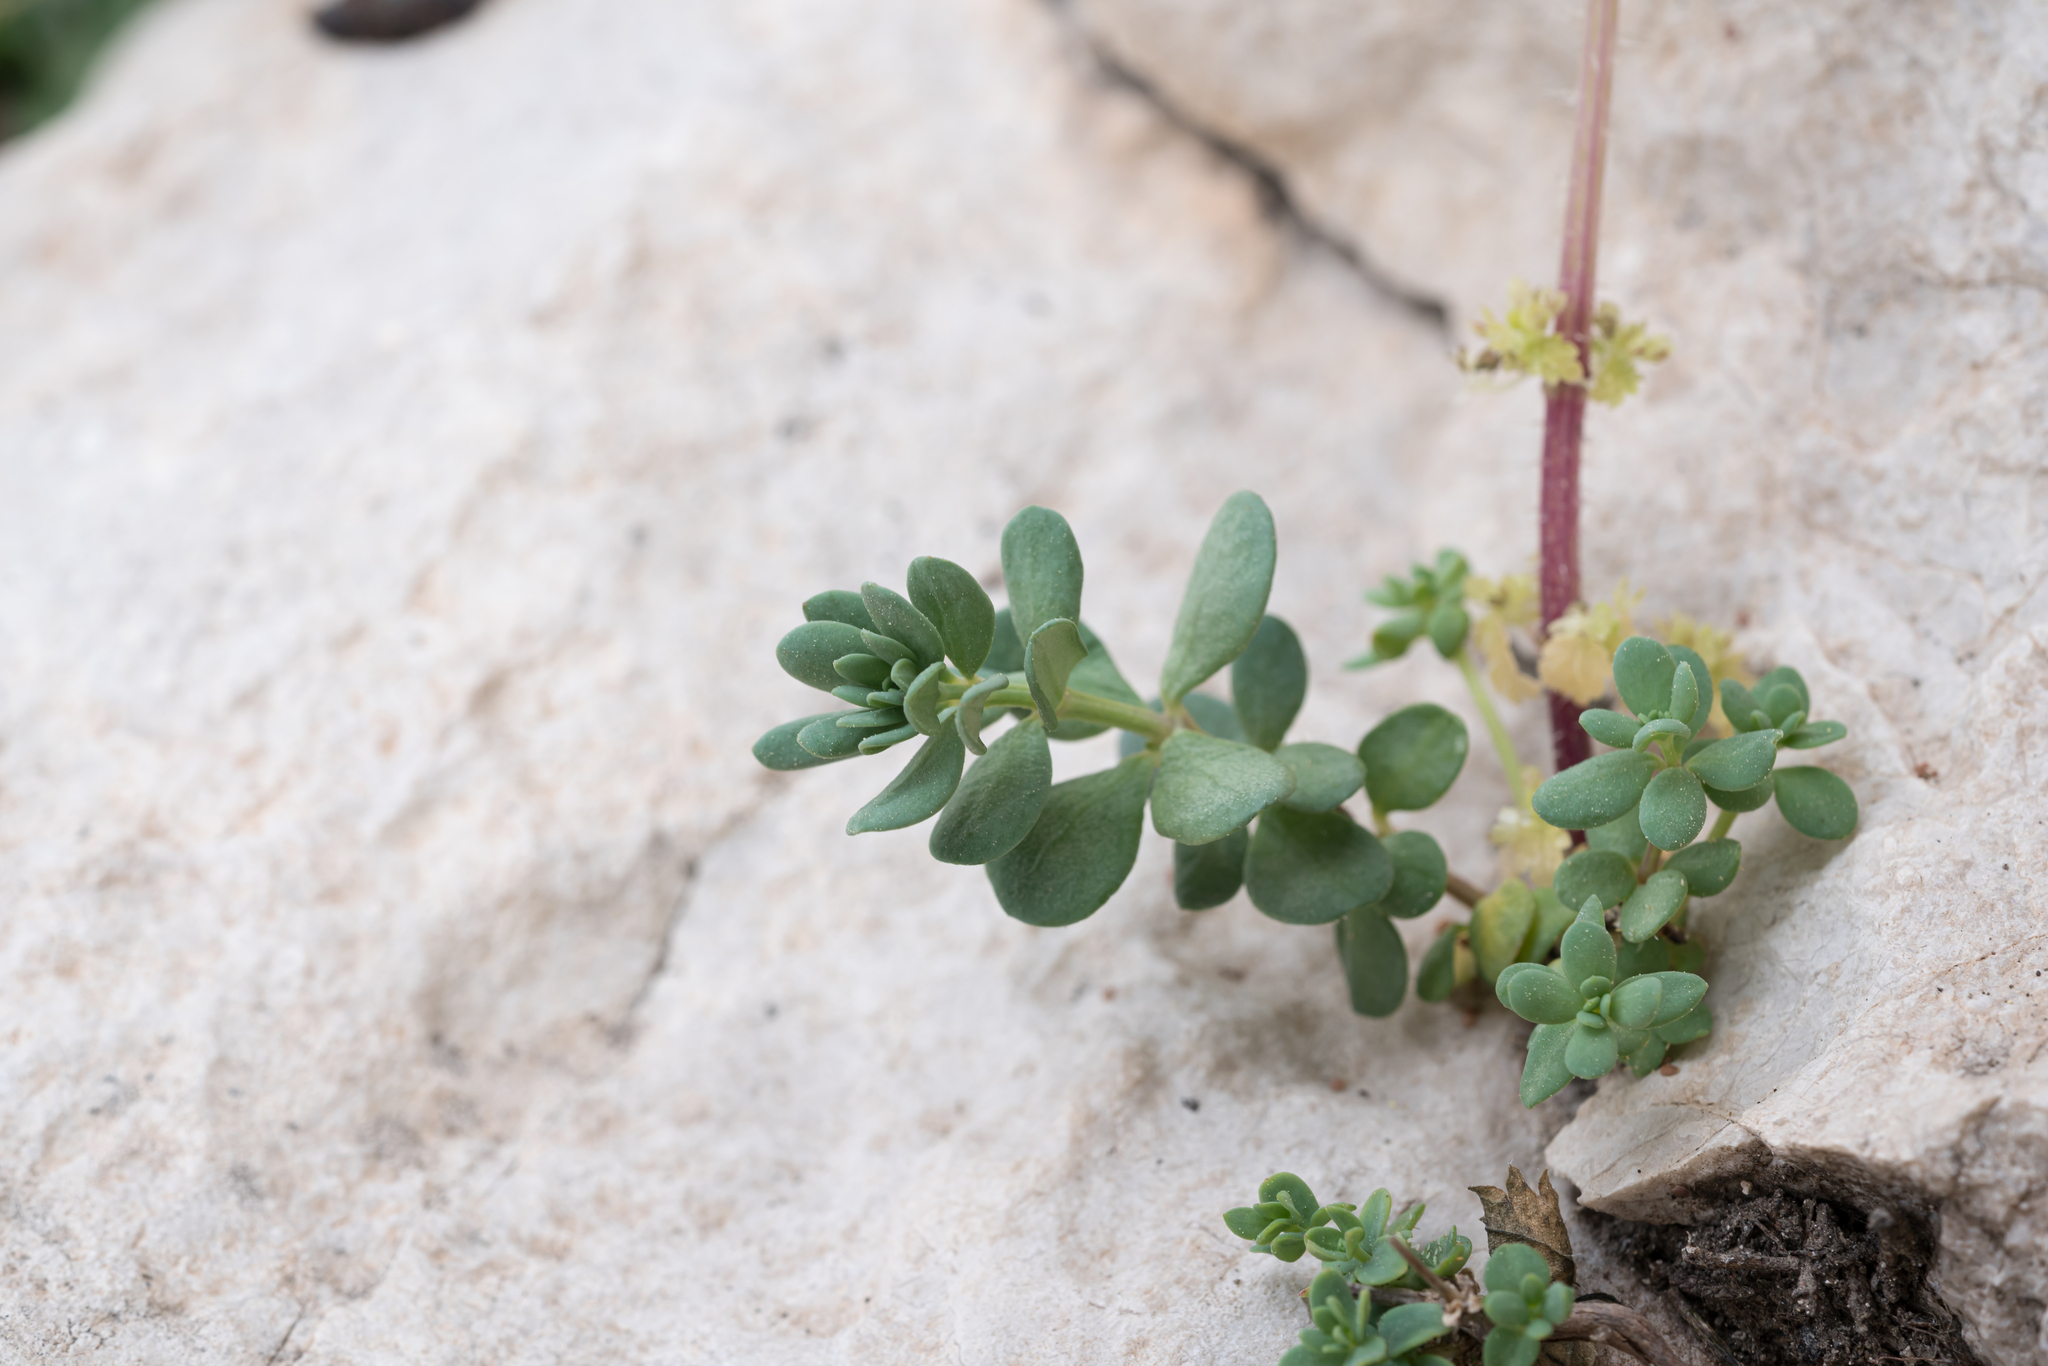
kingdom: Plantae
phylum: Tracheophyta
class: Magnoliopsida
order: Gentianales
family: Rubiaceae
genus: Thliphthisa
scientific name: Thliphthisa tournefortii
